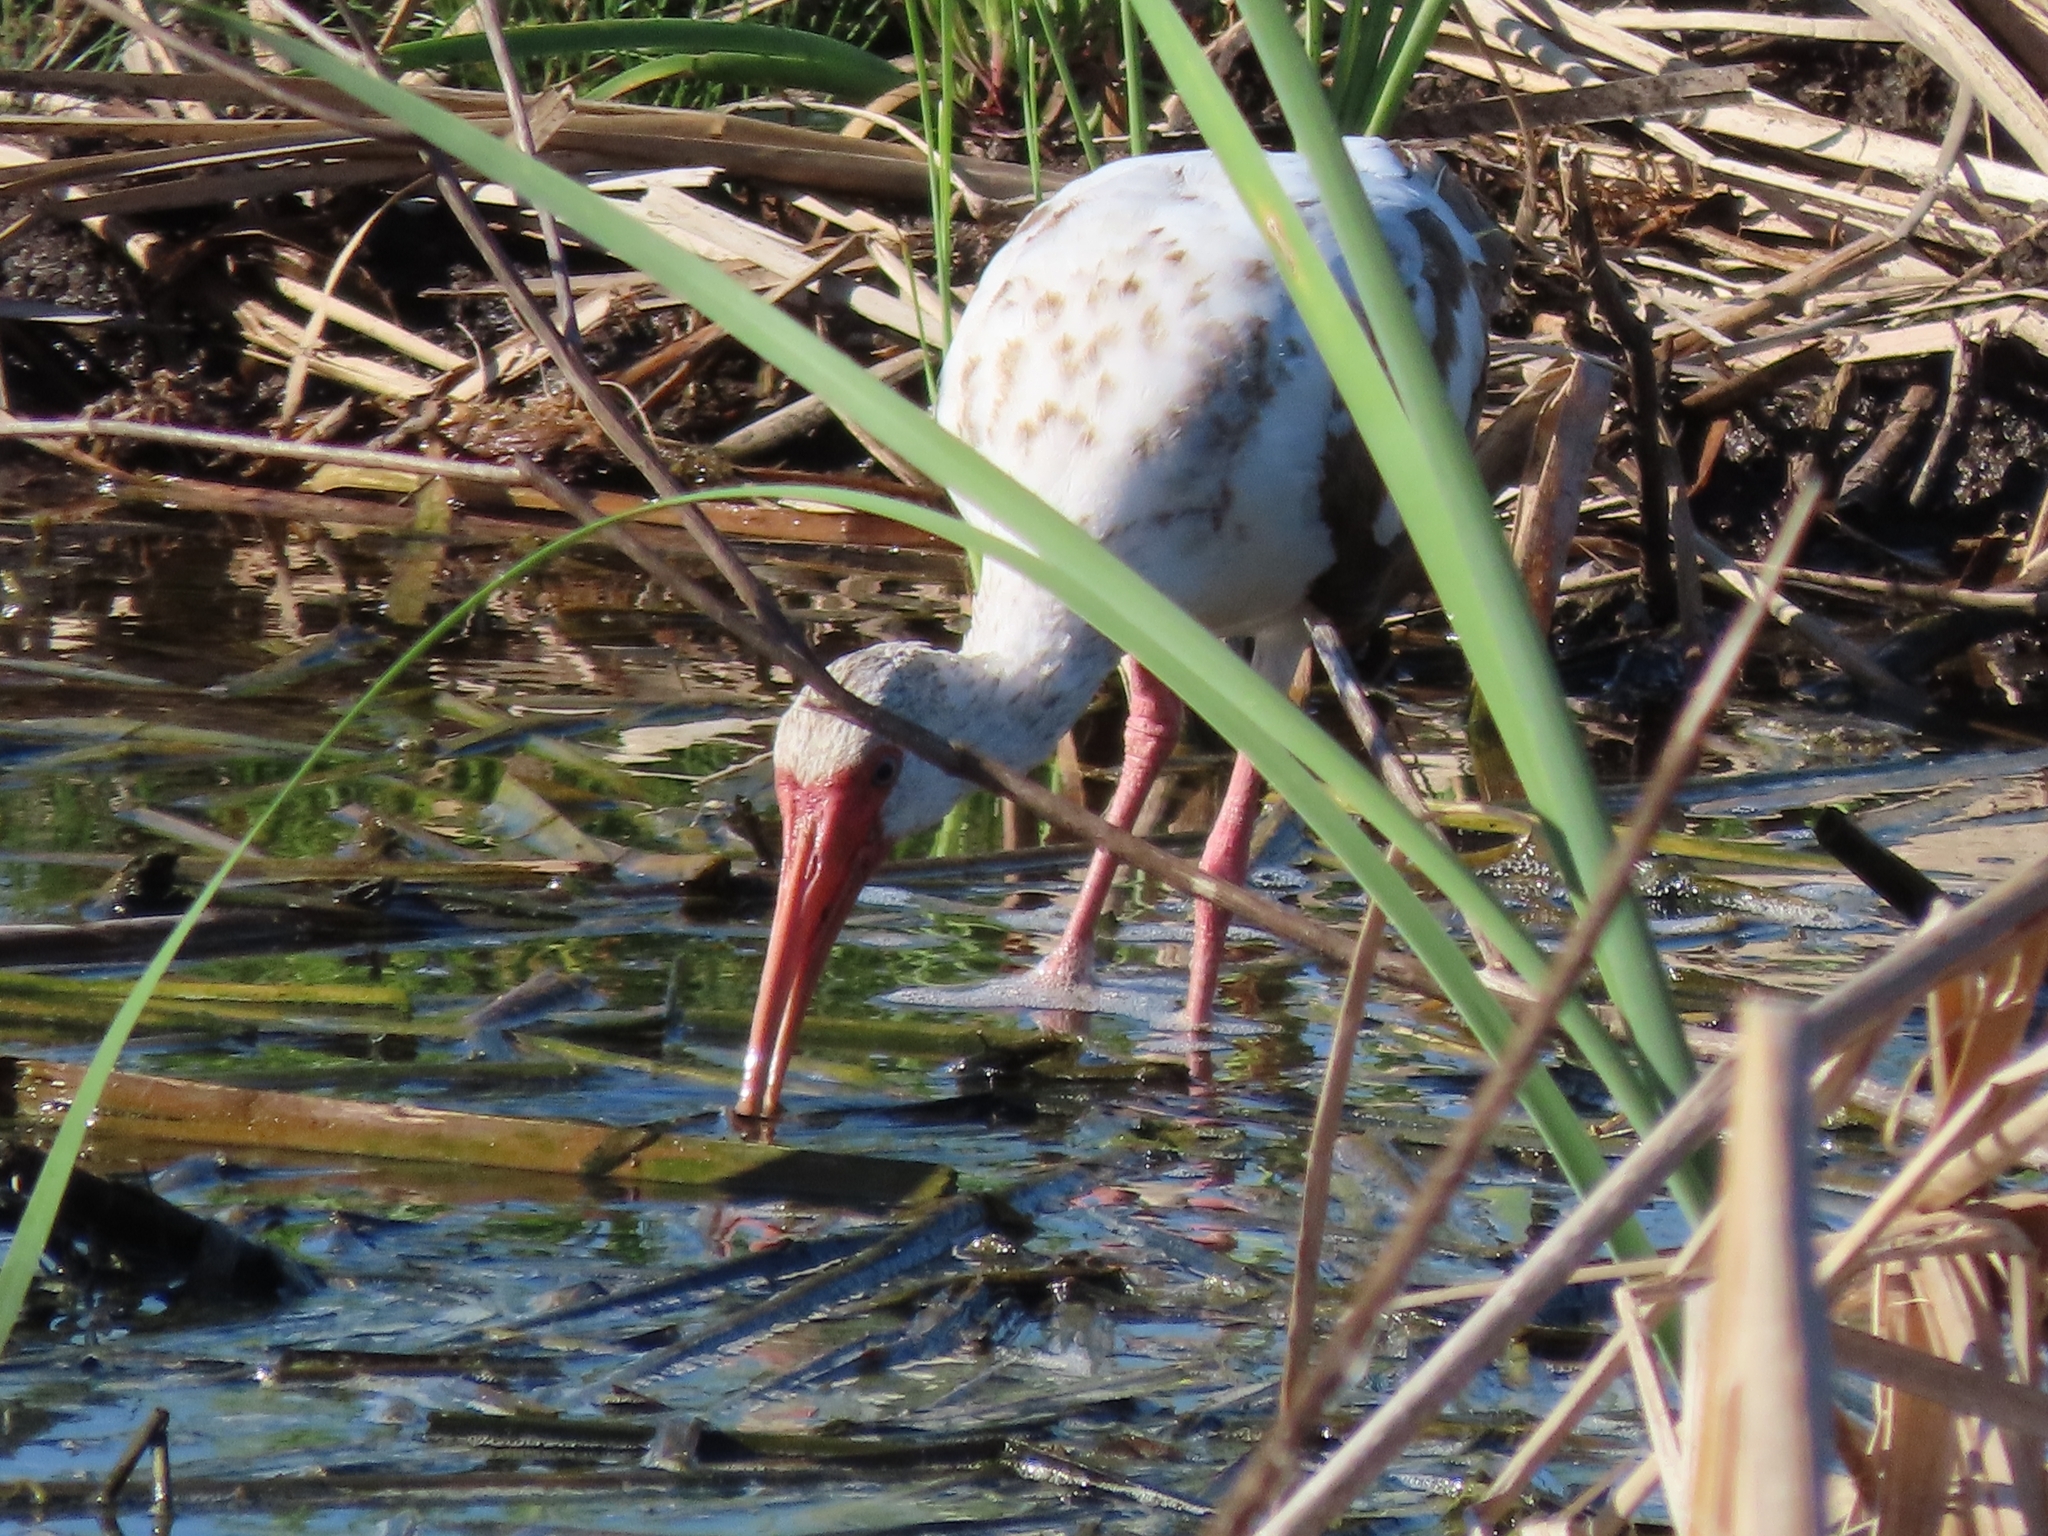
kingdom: Animalia
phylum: Chordata
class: Aves
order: Pelecaniformes
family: Threskiornithidae
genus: Eudocimus
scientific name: Eudocimus albus
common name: White ibis
